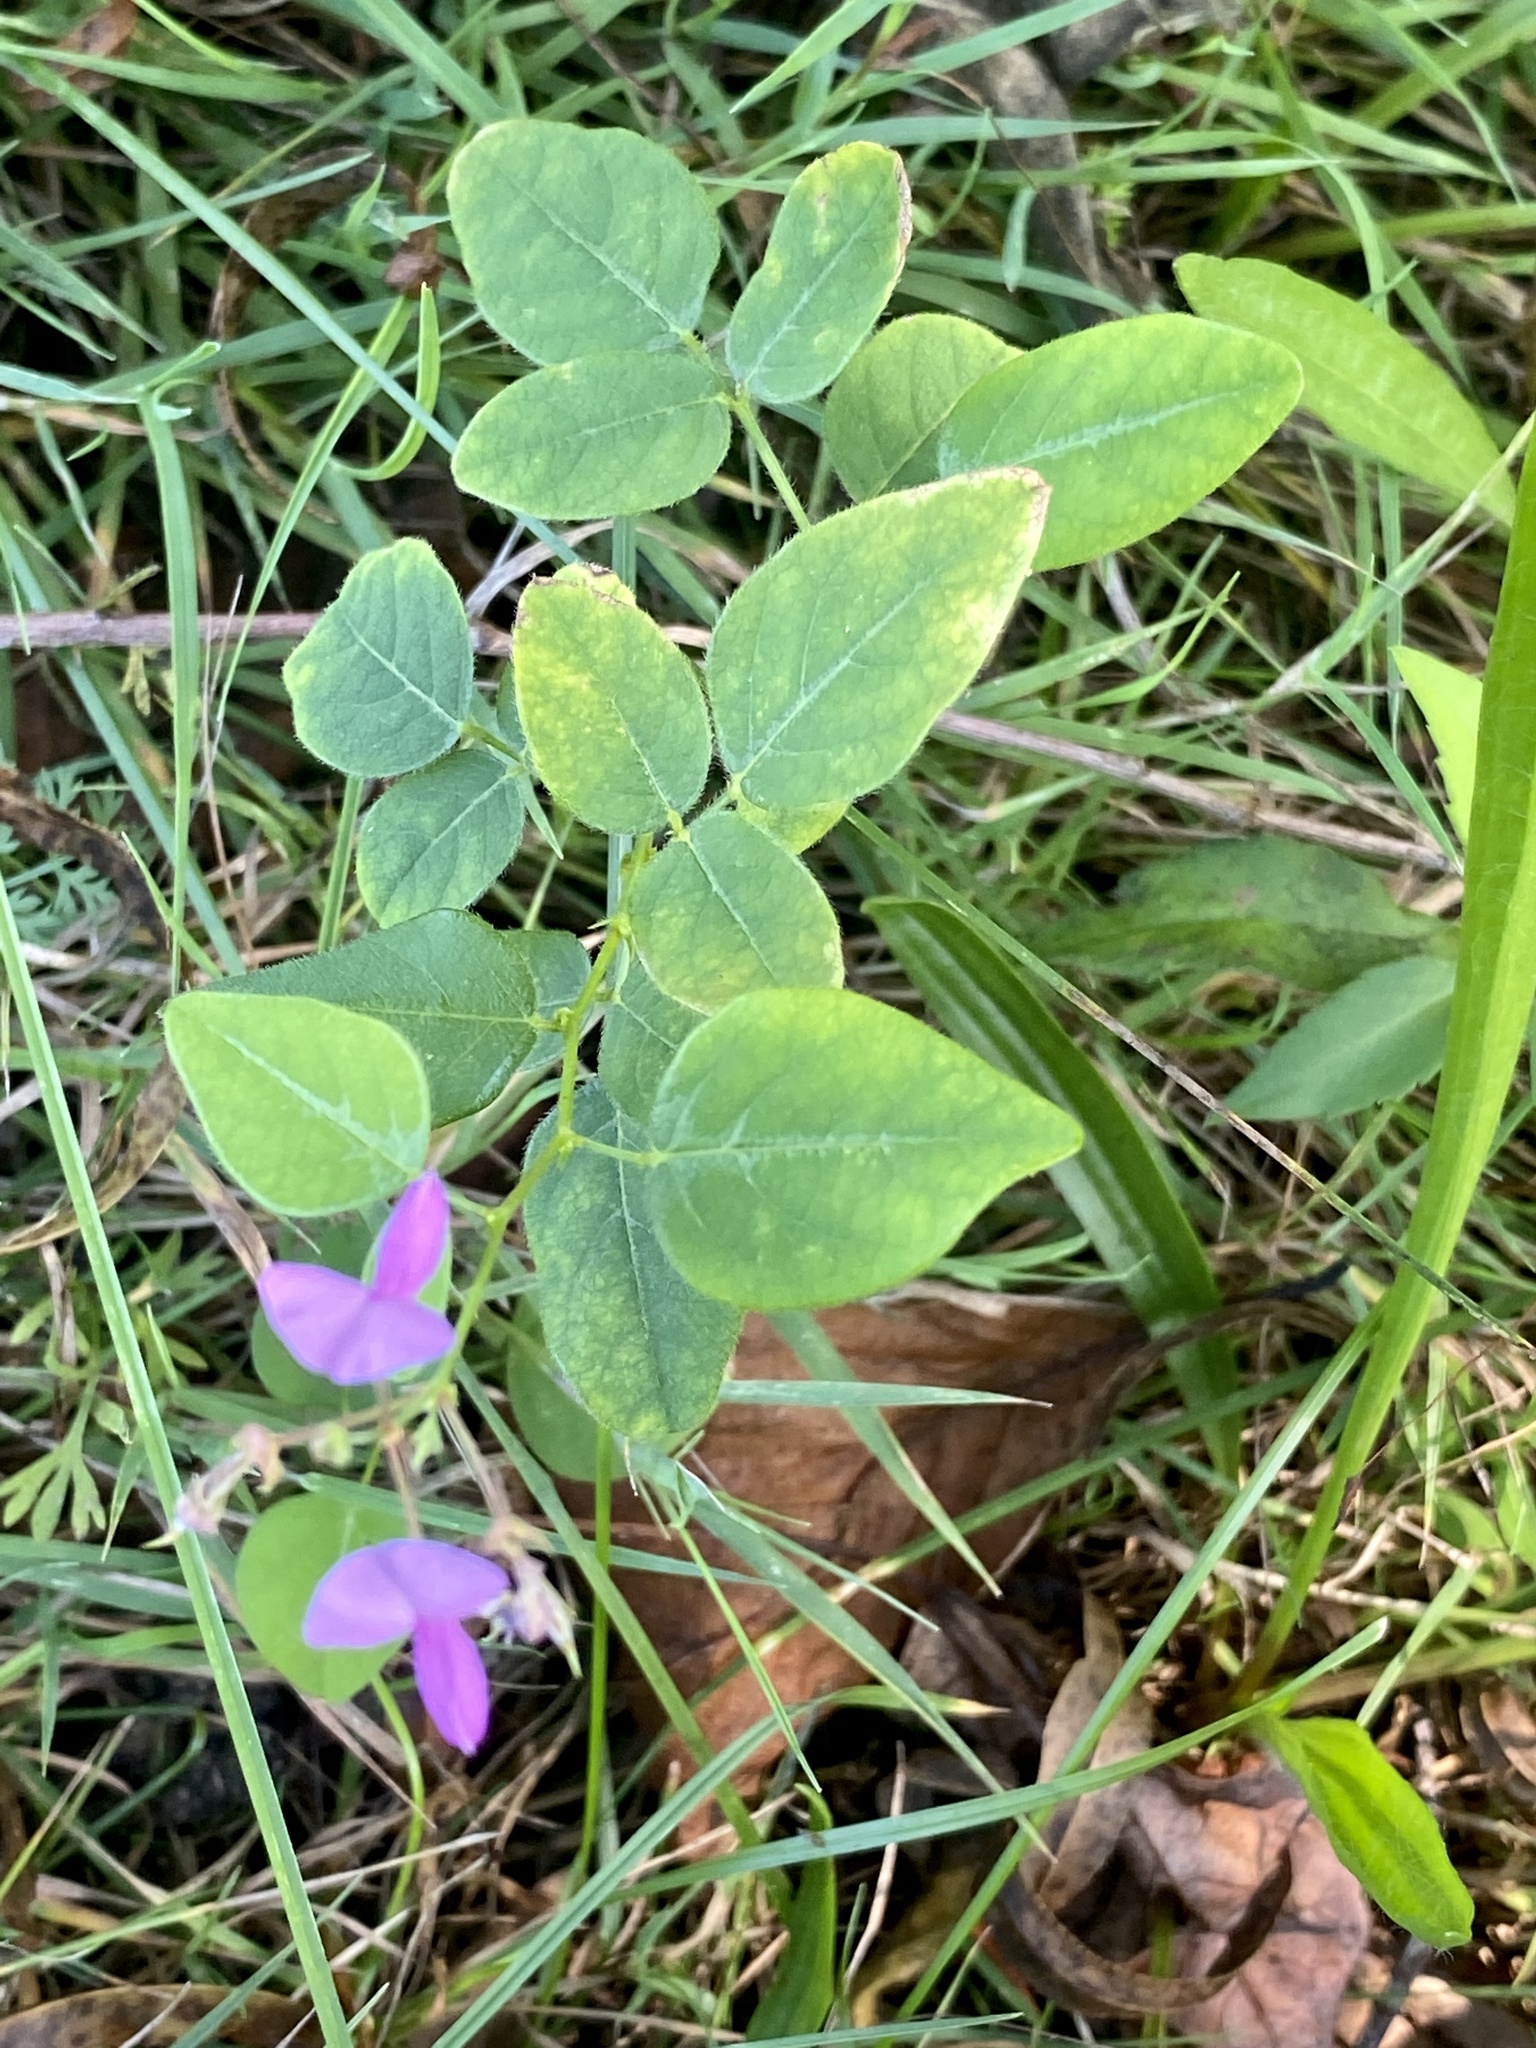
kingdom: Plantae
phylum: Tracheophyta
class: Magnoliopsida
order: Fabales
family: Fabaceae
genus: Desmodium
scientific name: Desmodium canescens
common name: Hoary tick-clover
